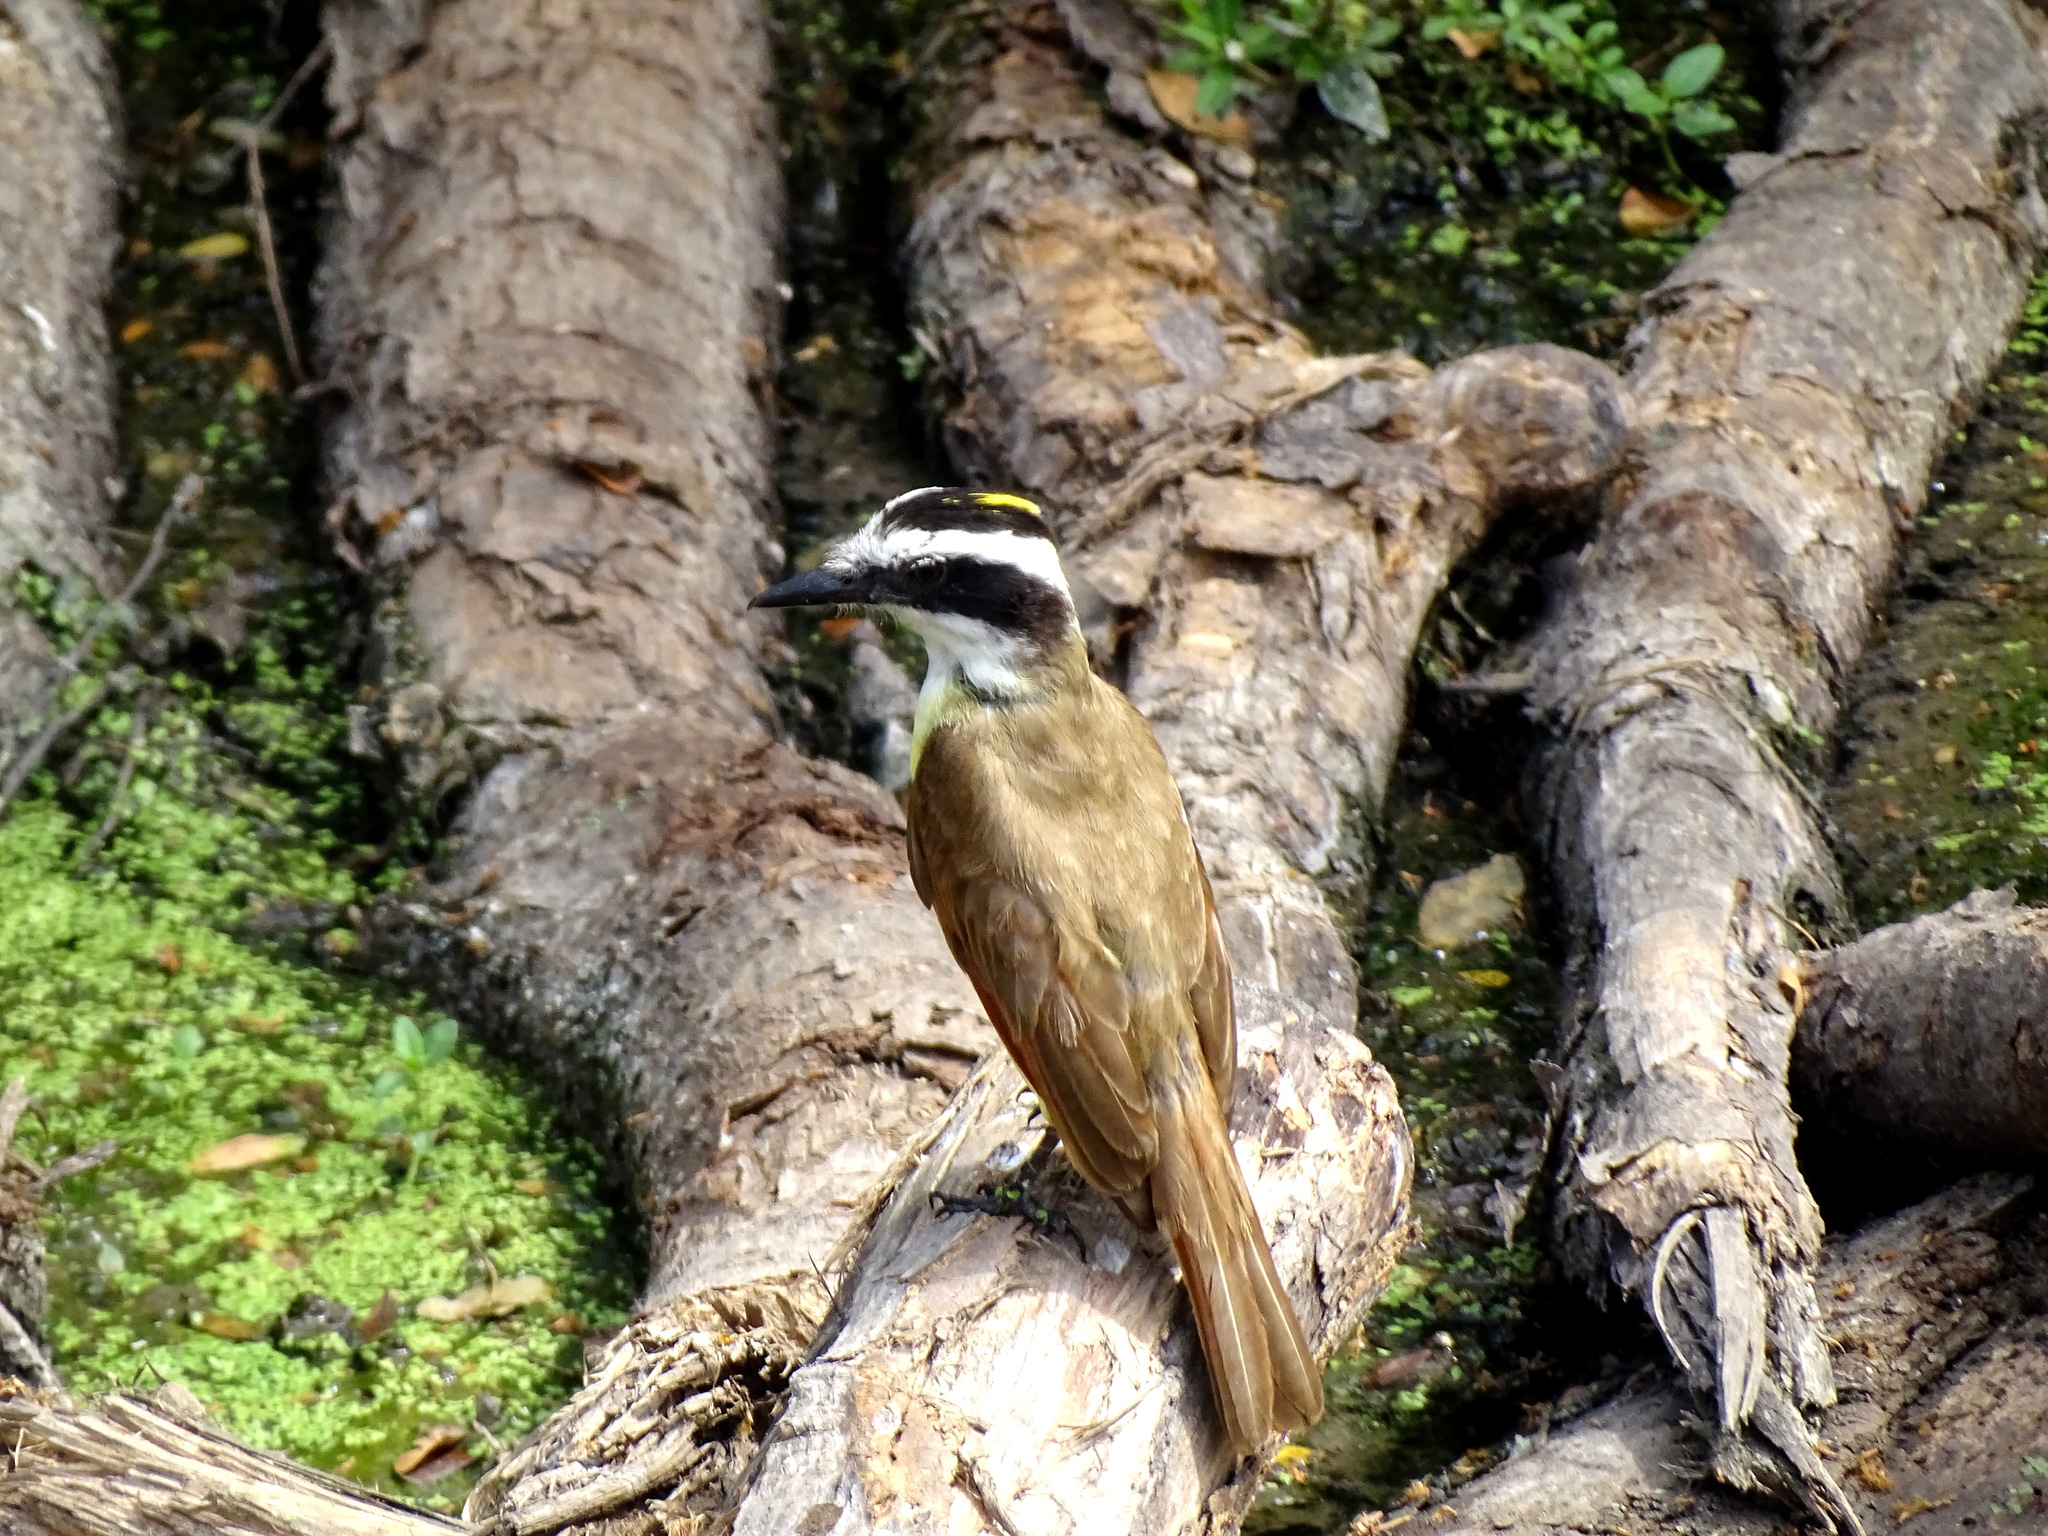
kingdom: Animalia
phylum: Chordata
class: Aves
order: Passeriformes
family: Tyrannidae
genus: Pitangus
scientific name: Pitangus sulphuratus
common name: Great kiskadee
